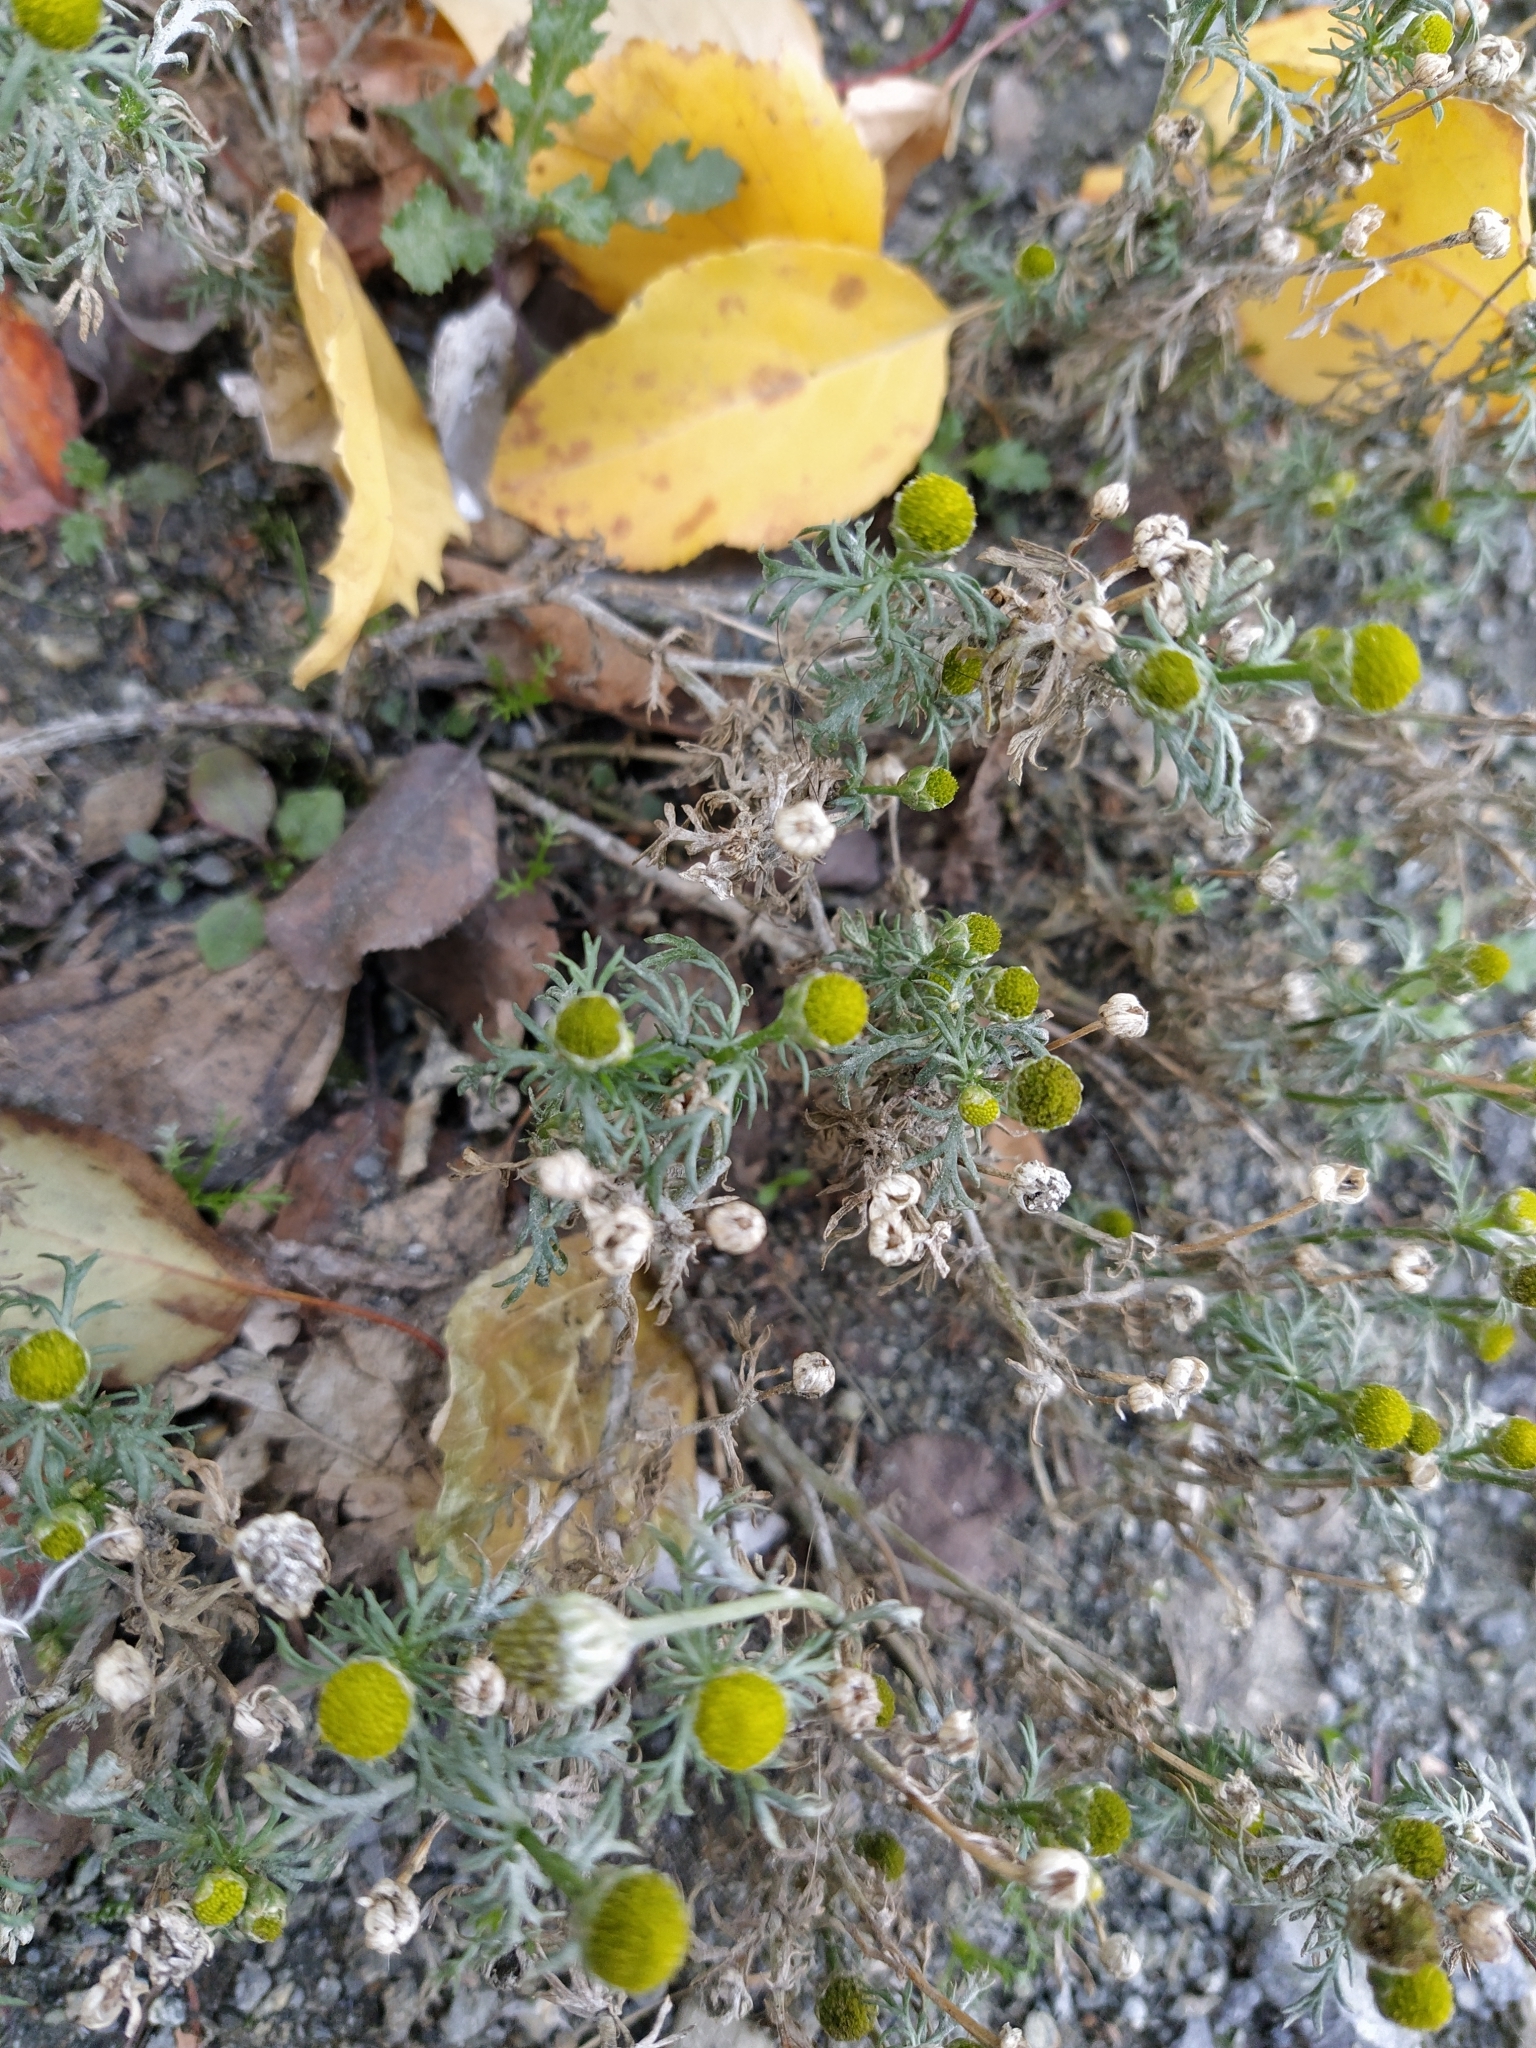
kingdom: Plantae
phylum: Tracheophyta
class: Magnoliopsida
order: Asterales
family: Asteraceae
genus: Matricaria
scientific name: Matricaria discoidea
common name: Disc mayweed
